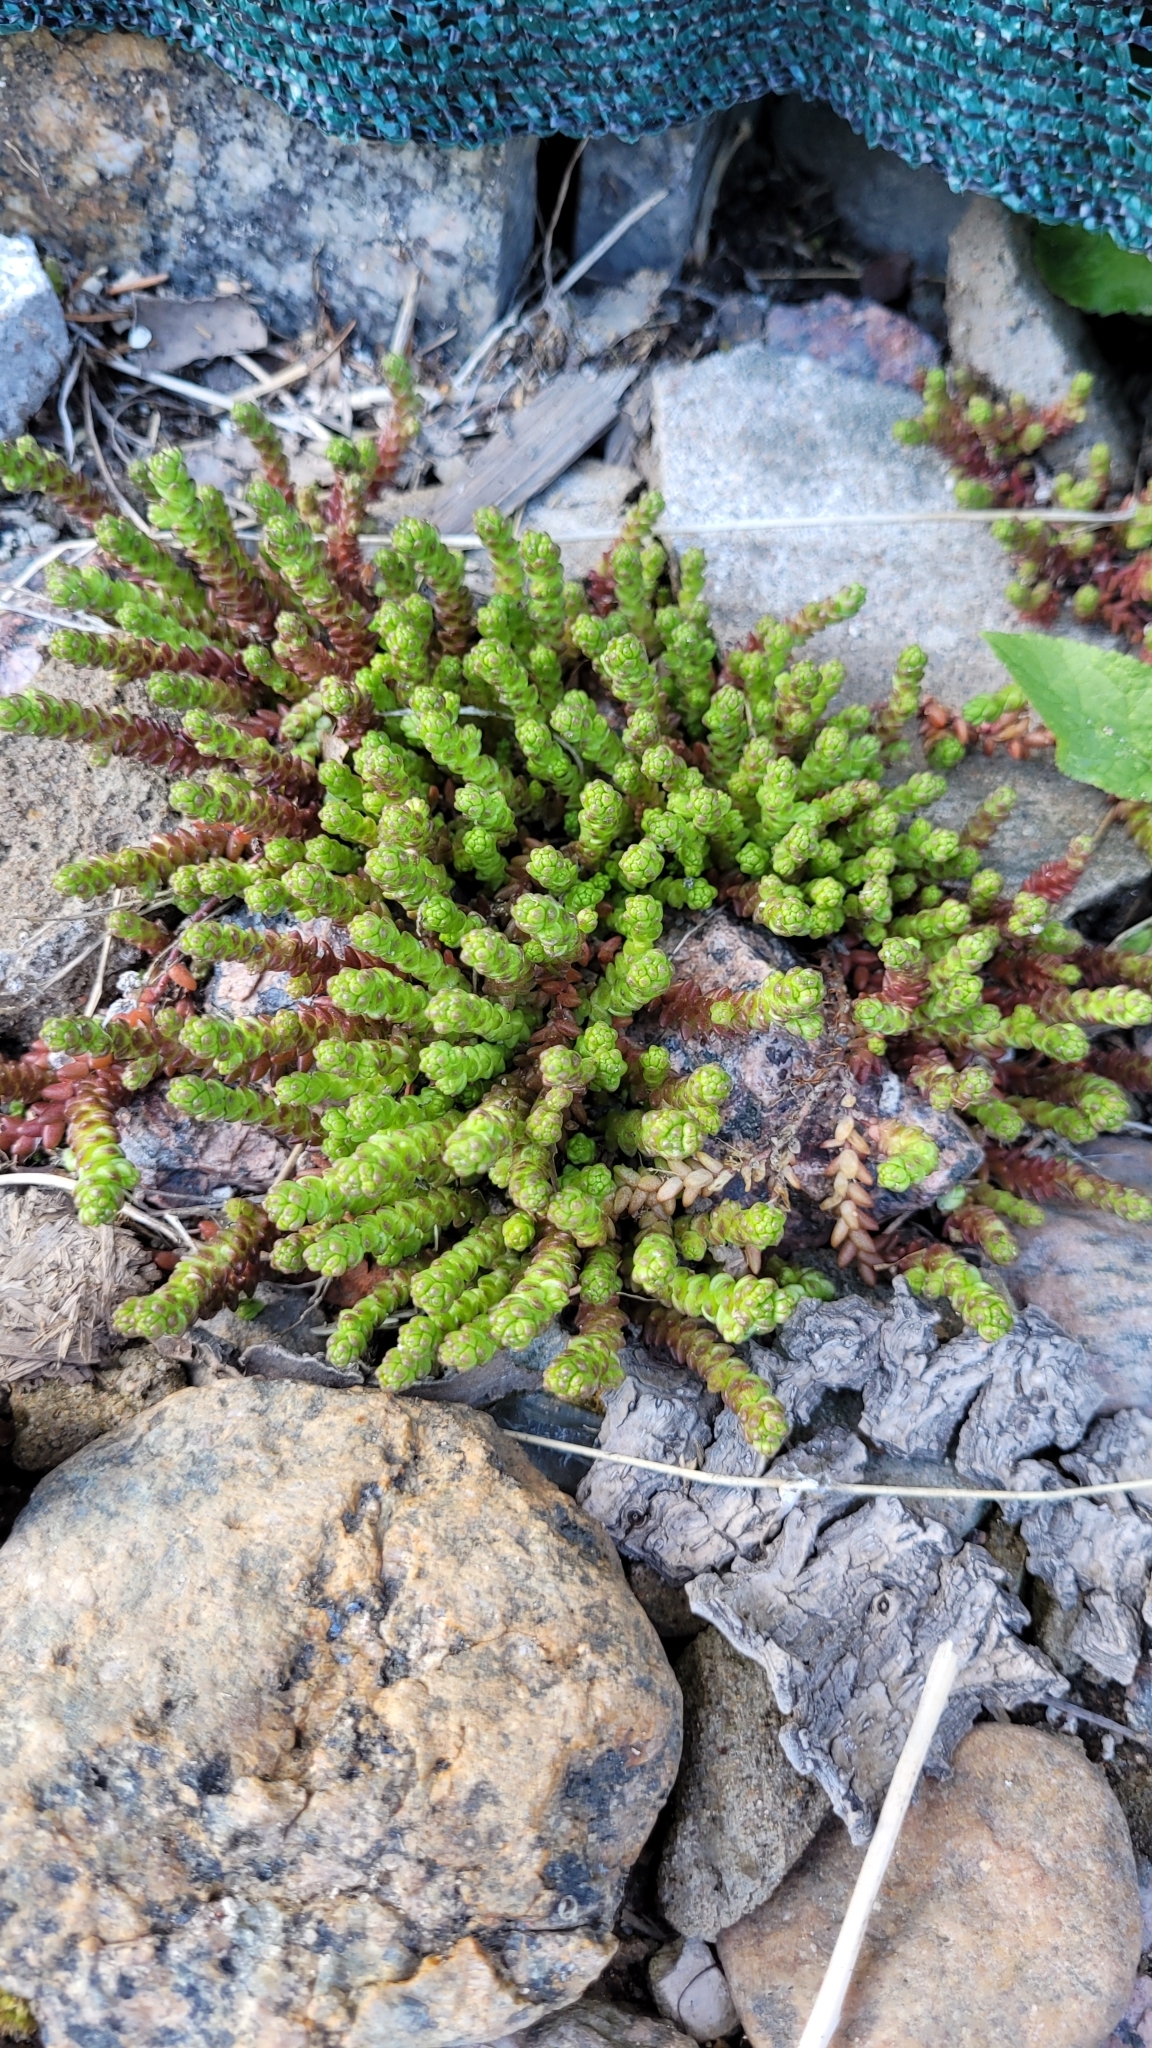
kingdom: Plantae
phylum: Tracheophyta
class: Magnoliopsida
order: Saxifragales
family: Crassulaceae
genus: Sedum
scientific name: Sedum acre
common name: Biting stonecrop
